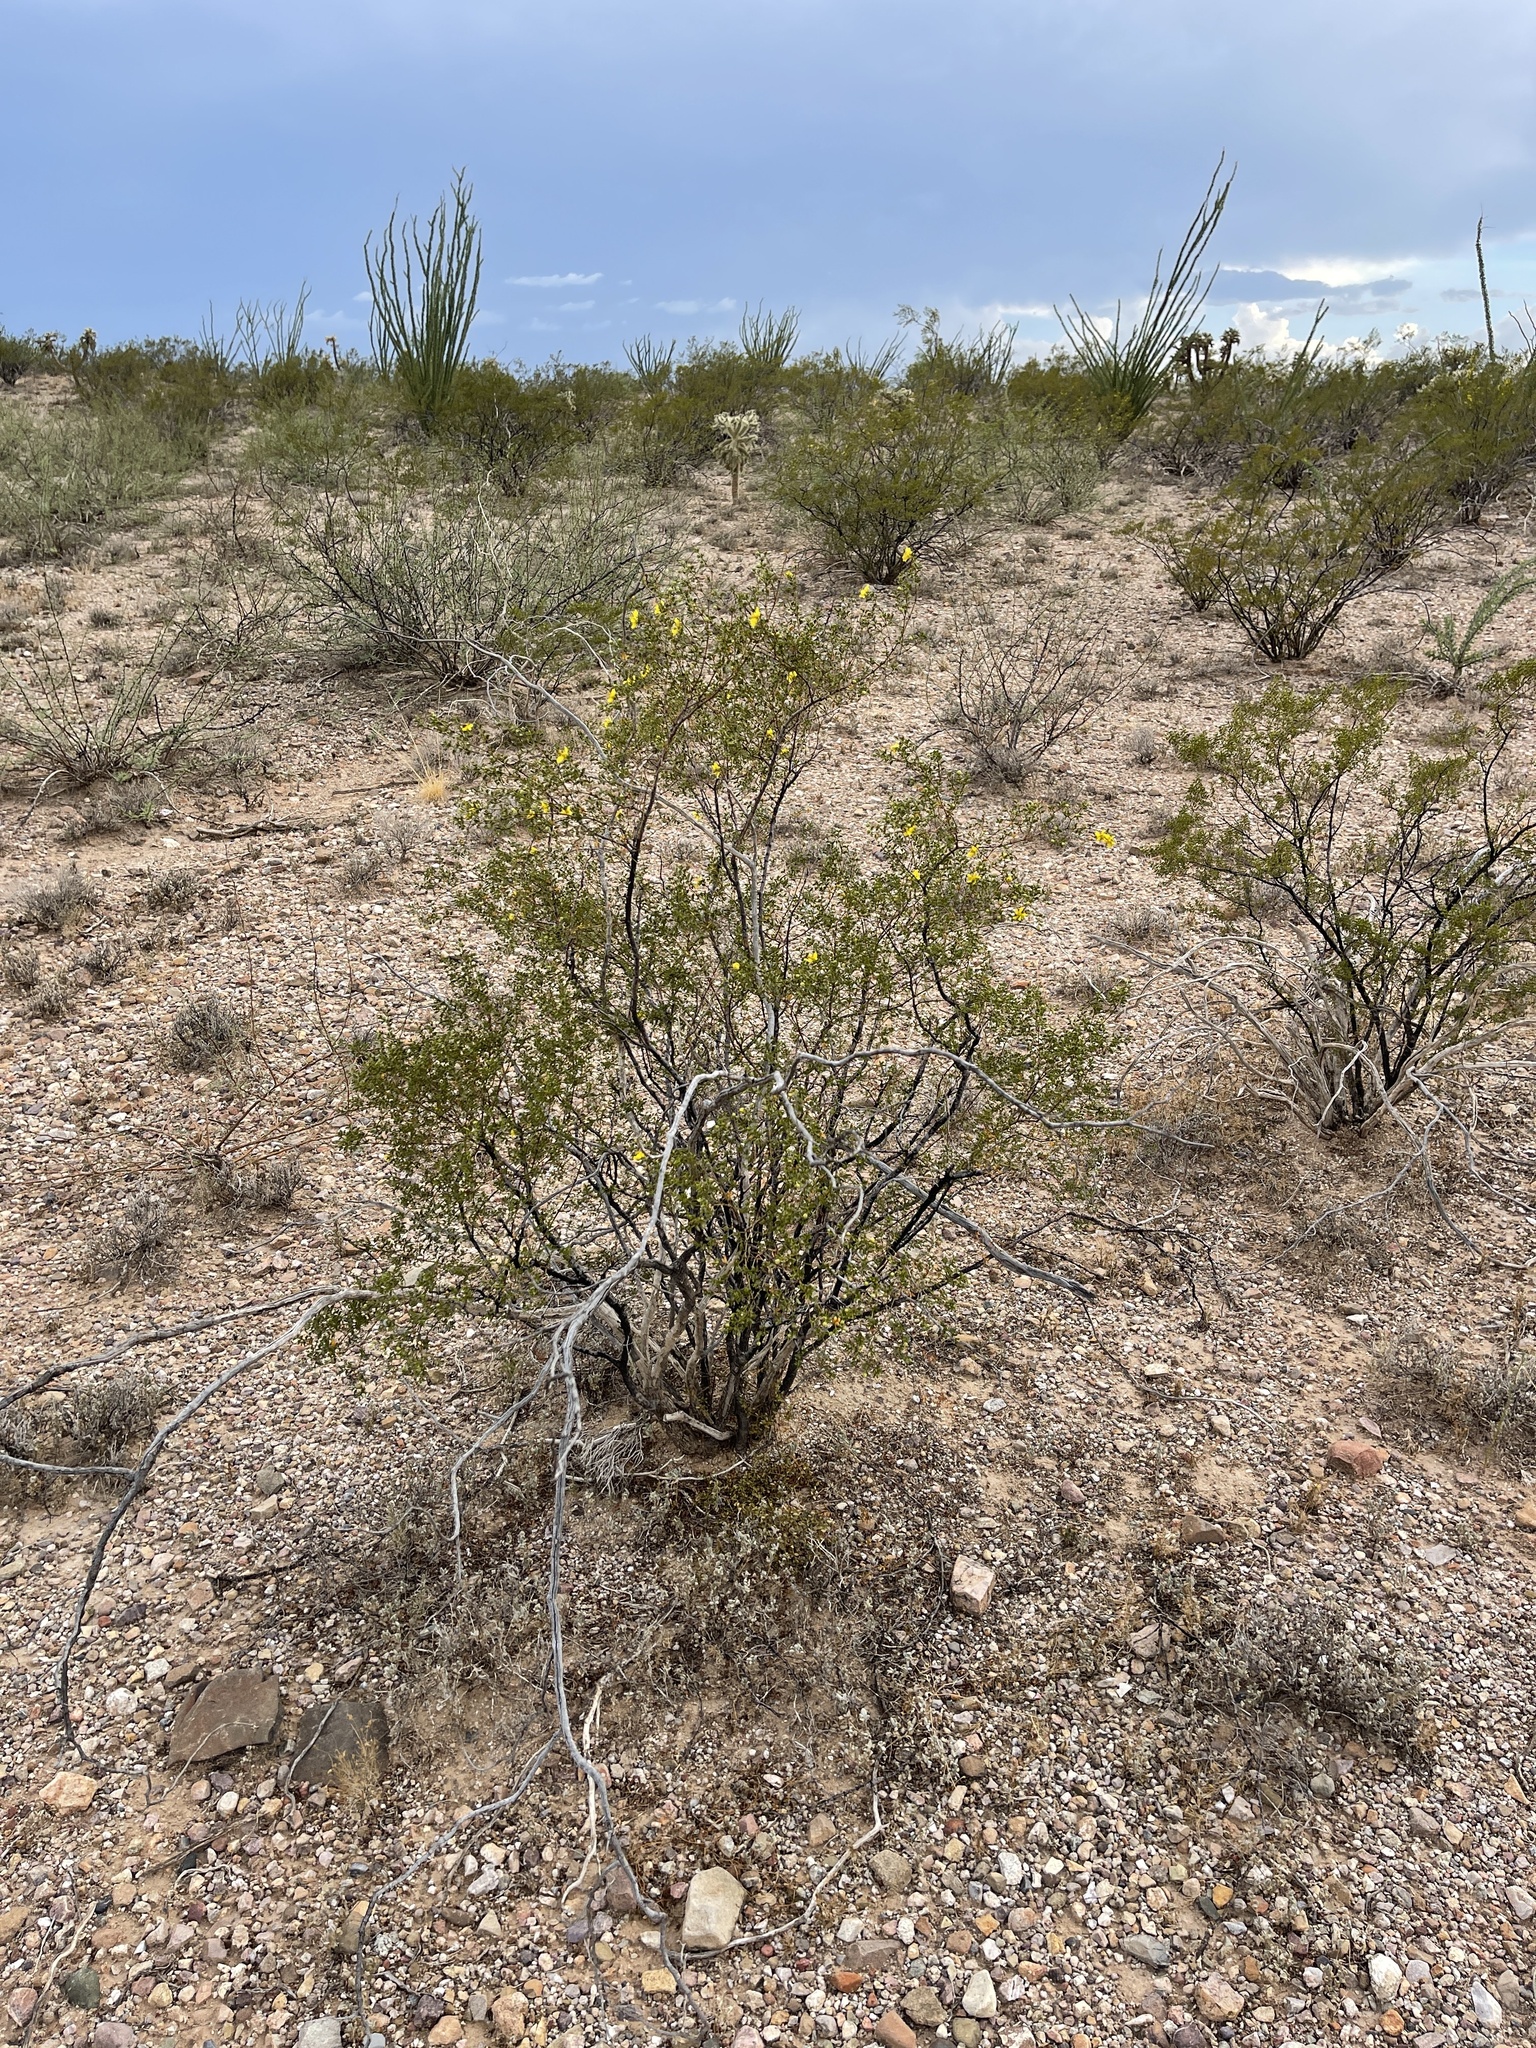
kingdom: Plantae
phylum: Tracheophyta
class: Magnoliopsida
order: Zygophyllales
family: Zygophyllaceae
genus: Larrea
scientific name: Larrea tridentata
